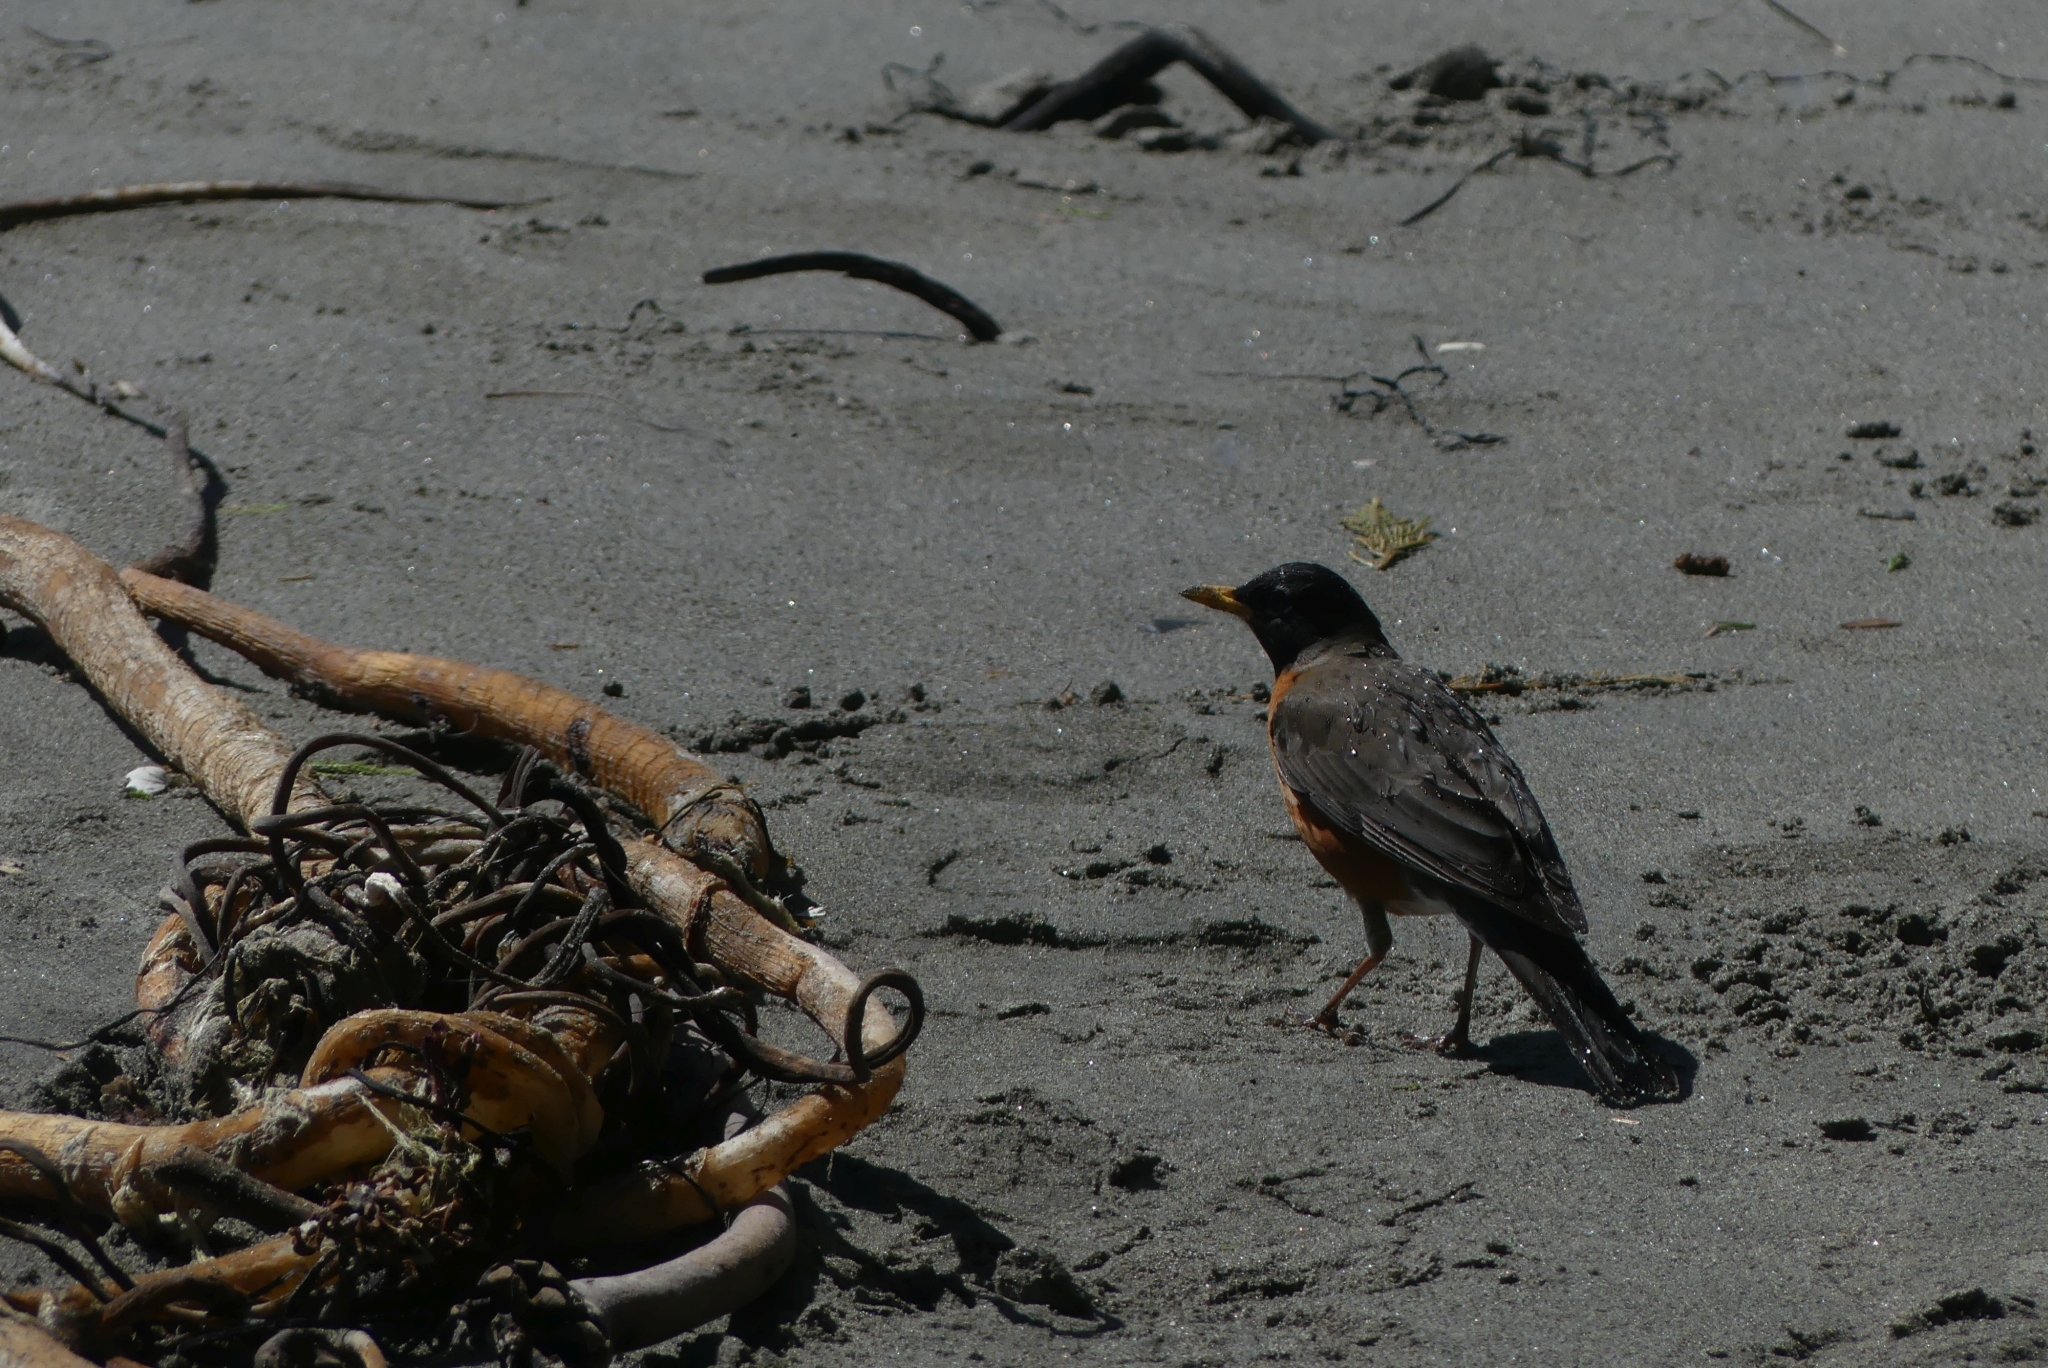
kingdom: Animalia
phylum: Chordata
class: Aves
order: Passeriformes
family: Turdidae
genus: Turdus
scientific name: Turdus migratorius
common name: American robin
